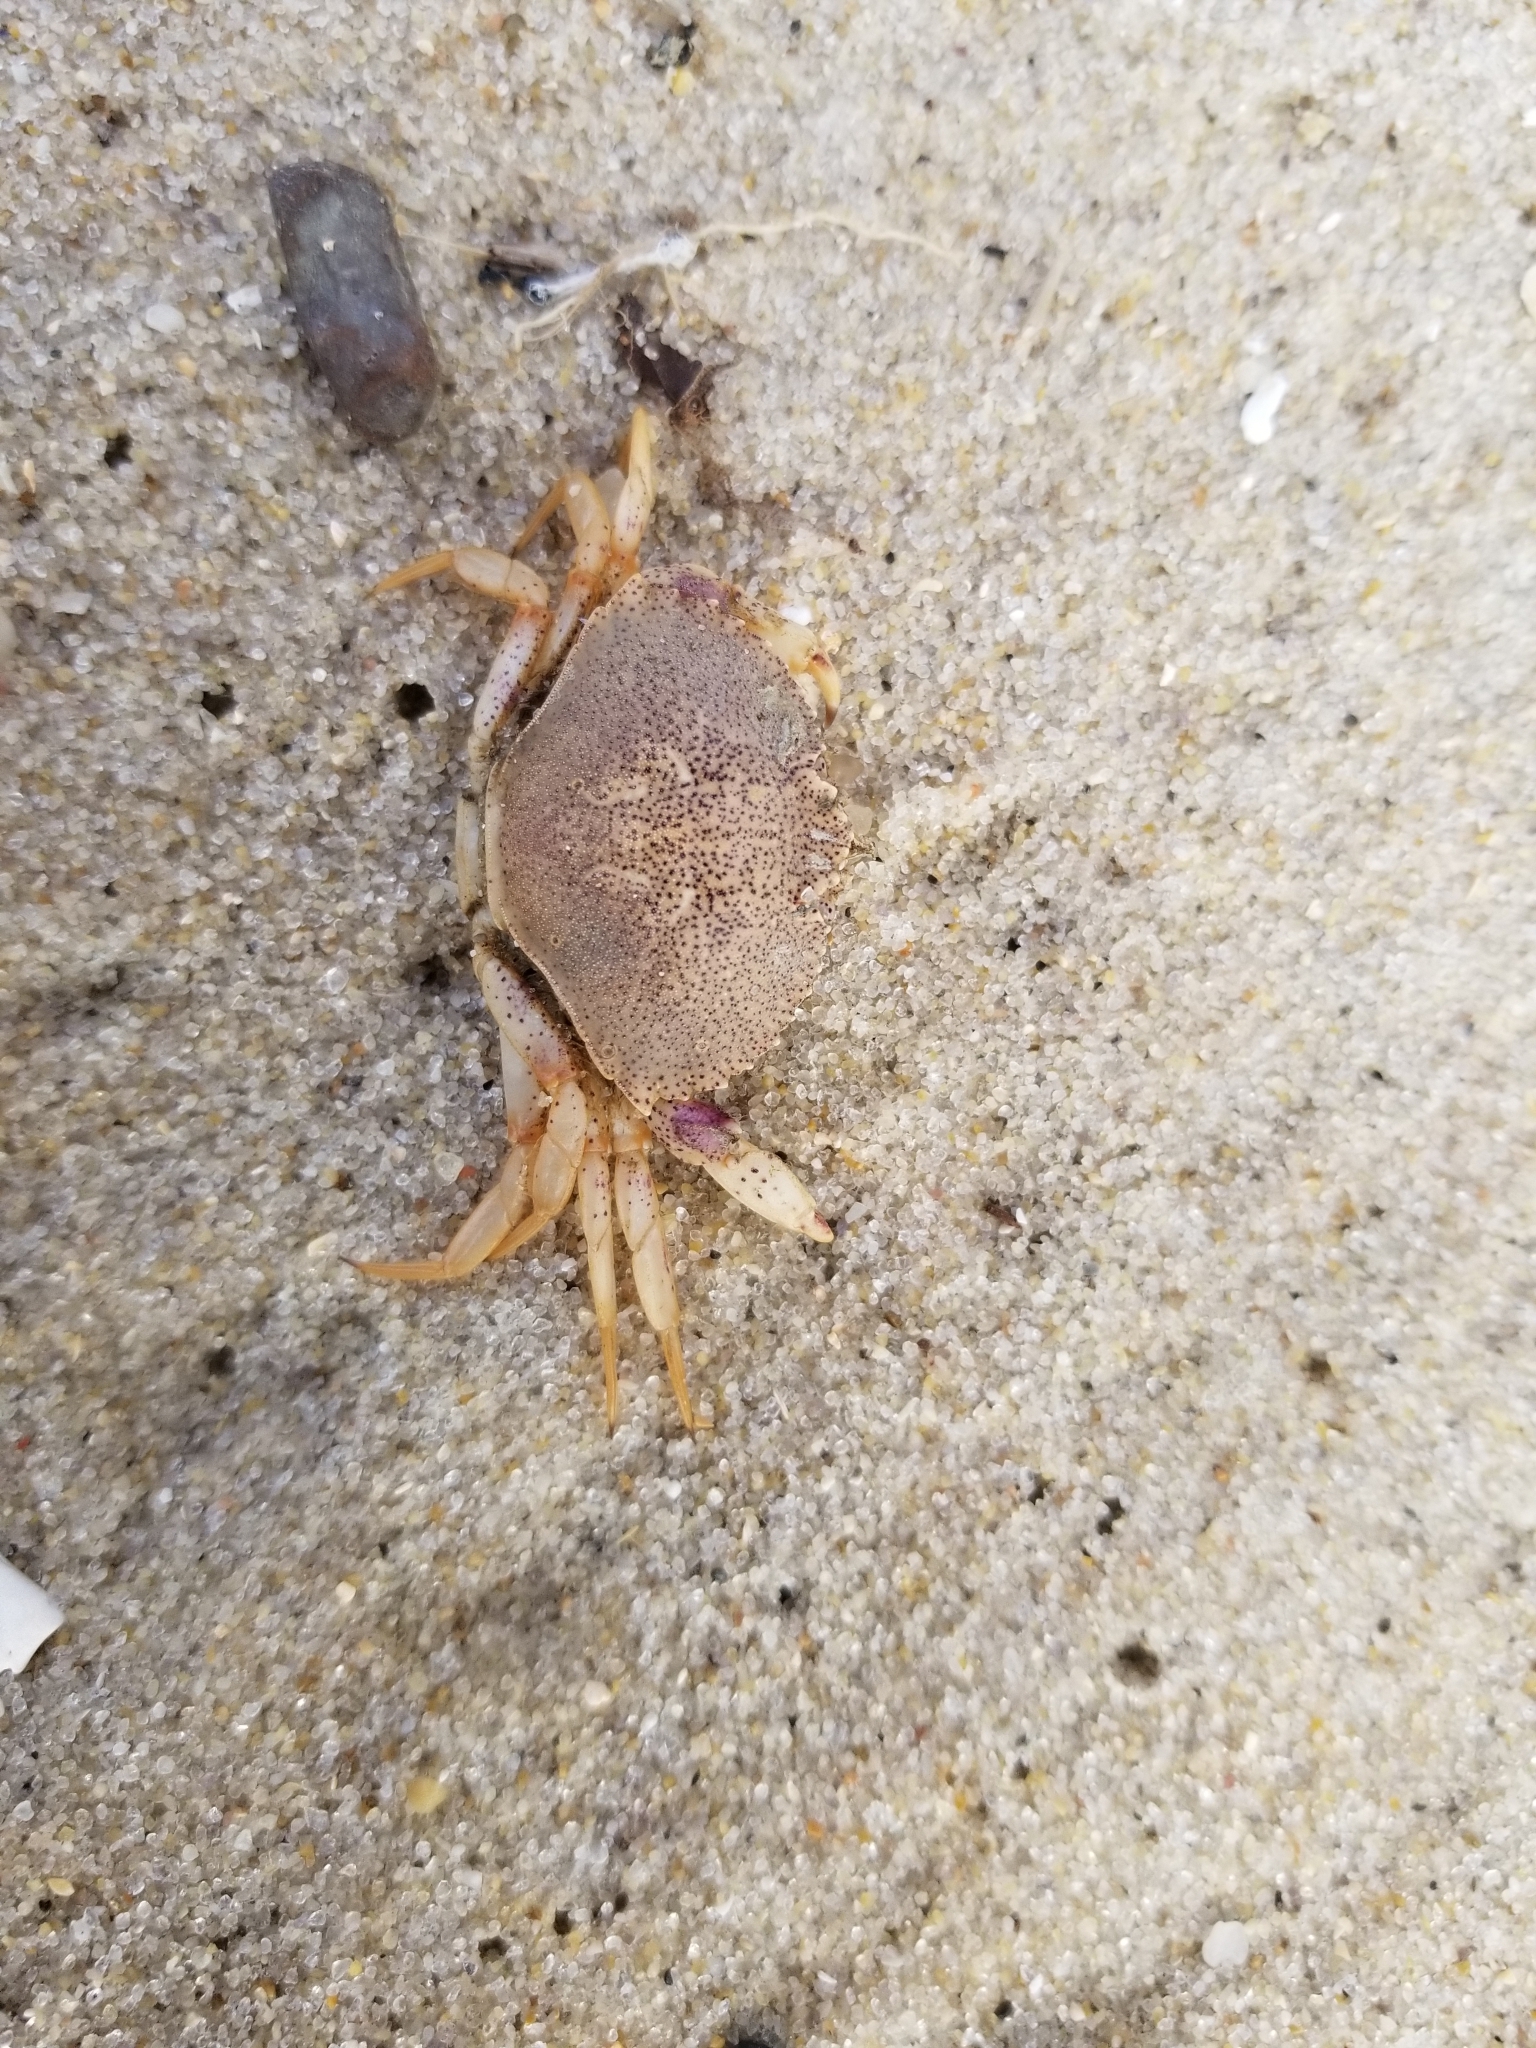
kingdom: Animalia
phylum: Arthropoda
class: Malacostraca
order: Decapoda
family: Ovalipidae
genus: Ovalipes
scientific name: Ovalipes ocellatus
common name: Lady crab
